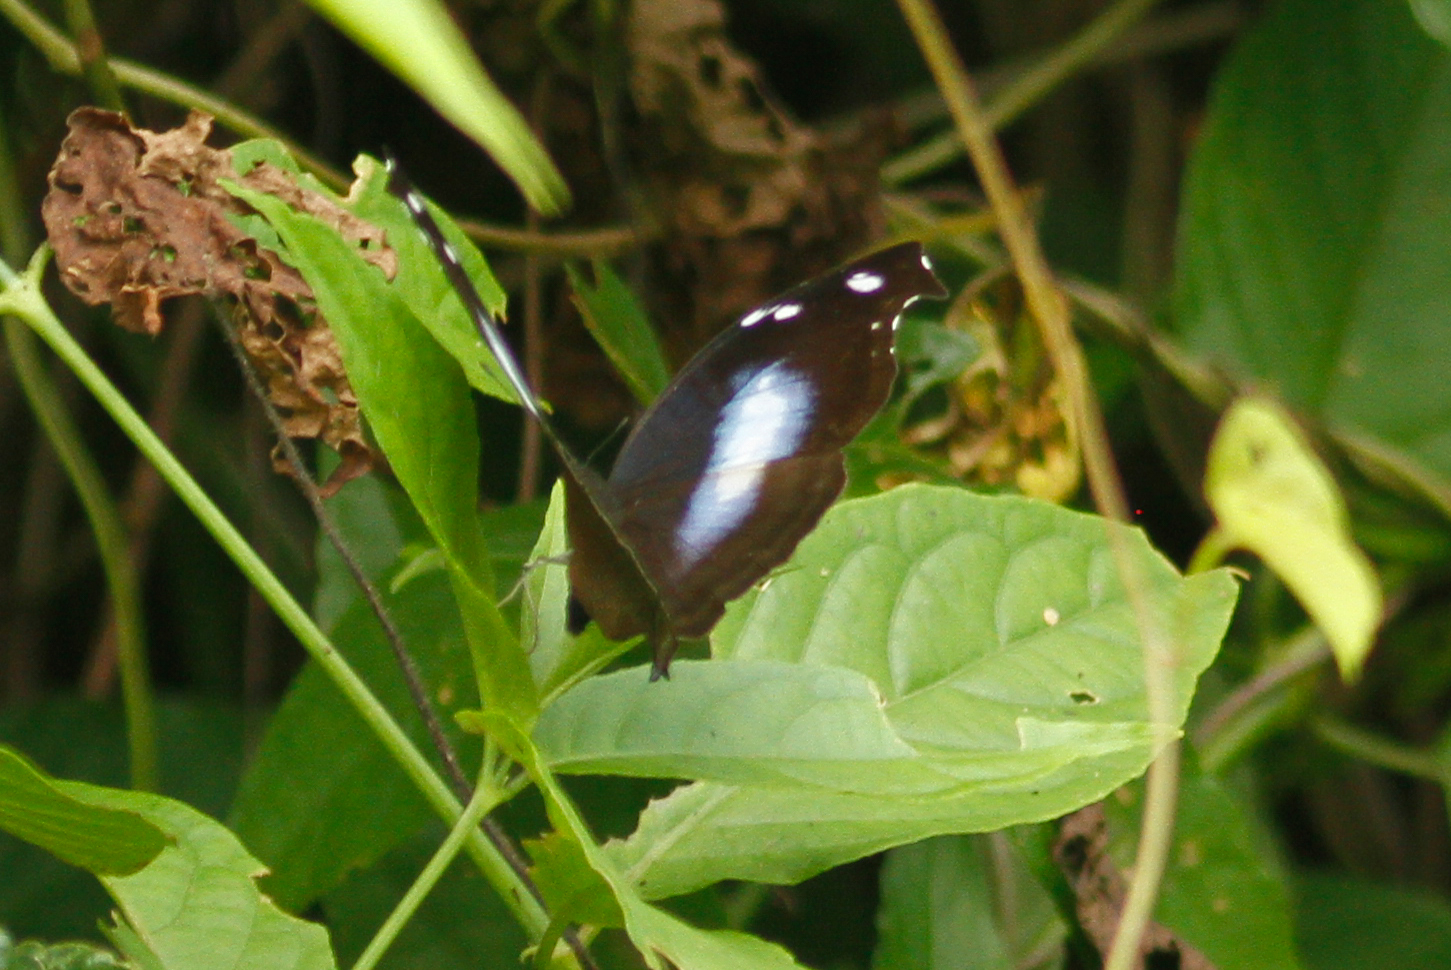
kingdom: Animalia
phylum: Arthropoda
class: Insecta
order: Lepidoptera
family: Nymphalidae
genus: Napeocles
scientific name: Napeocles jucunda
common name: Great blue hookwing
